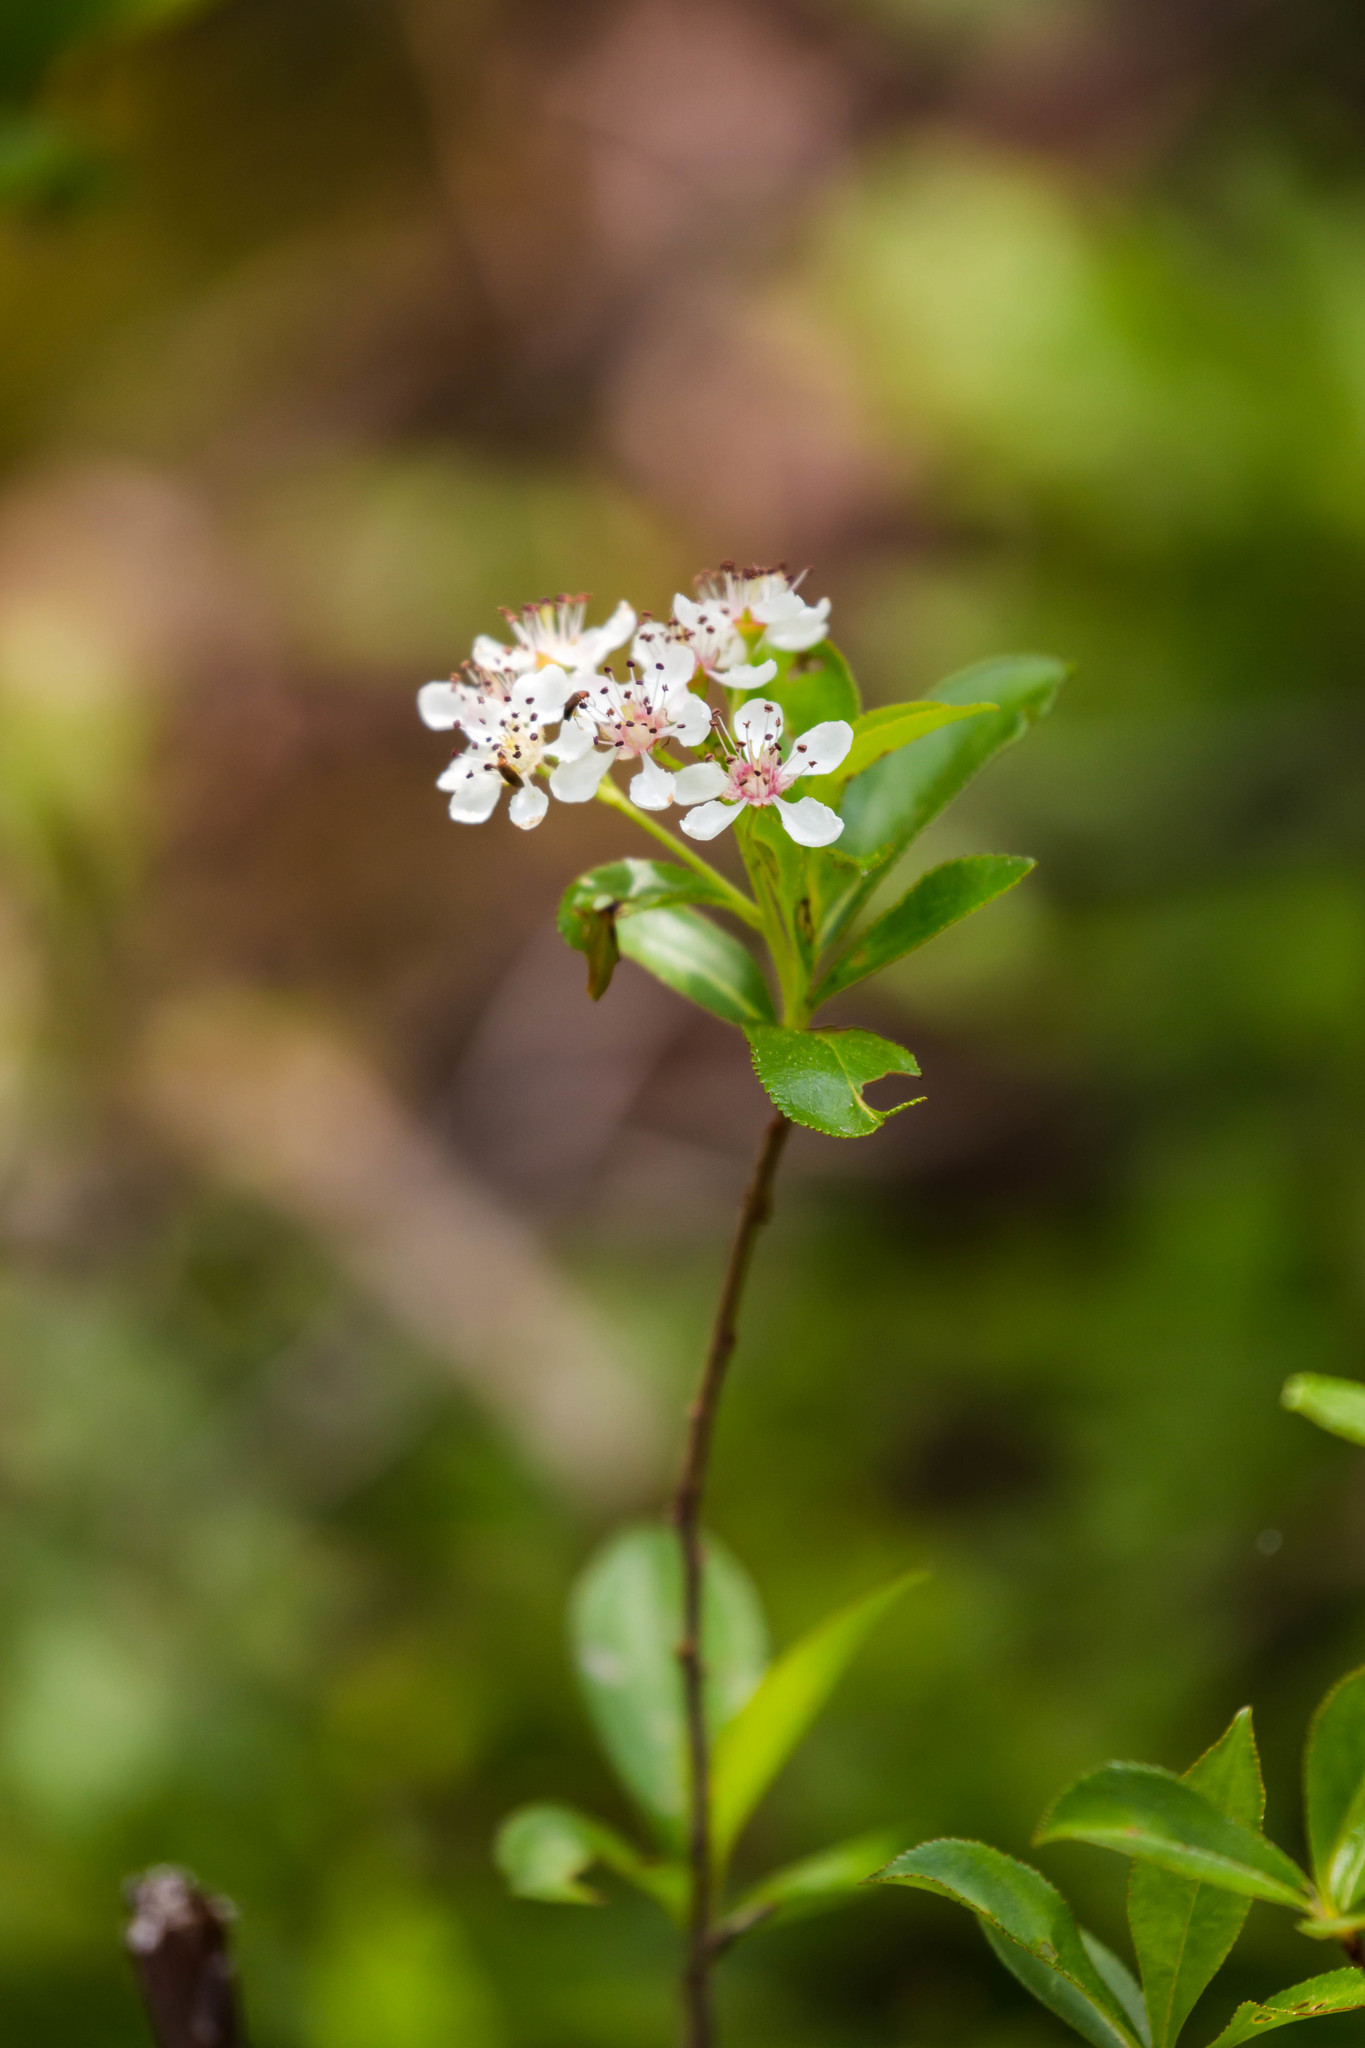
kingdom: Plantae
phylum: Tracheophyta
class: Magnoliopsida
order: Rosales
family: Rosaceae
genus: Aronia
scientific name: Aronia melanocarpa
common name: Black chokeberry
